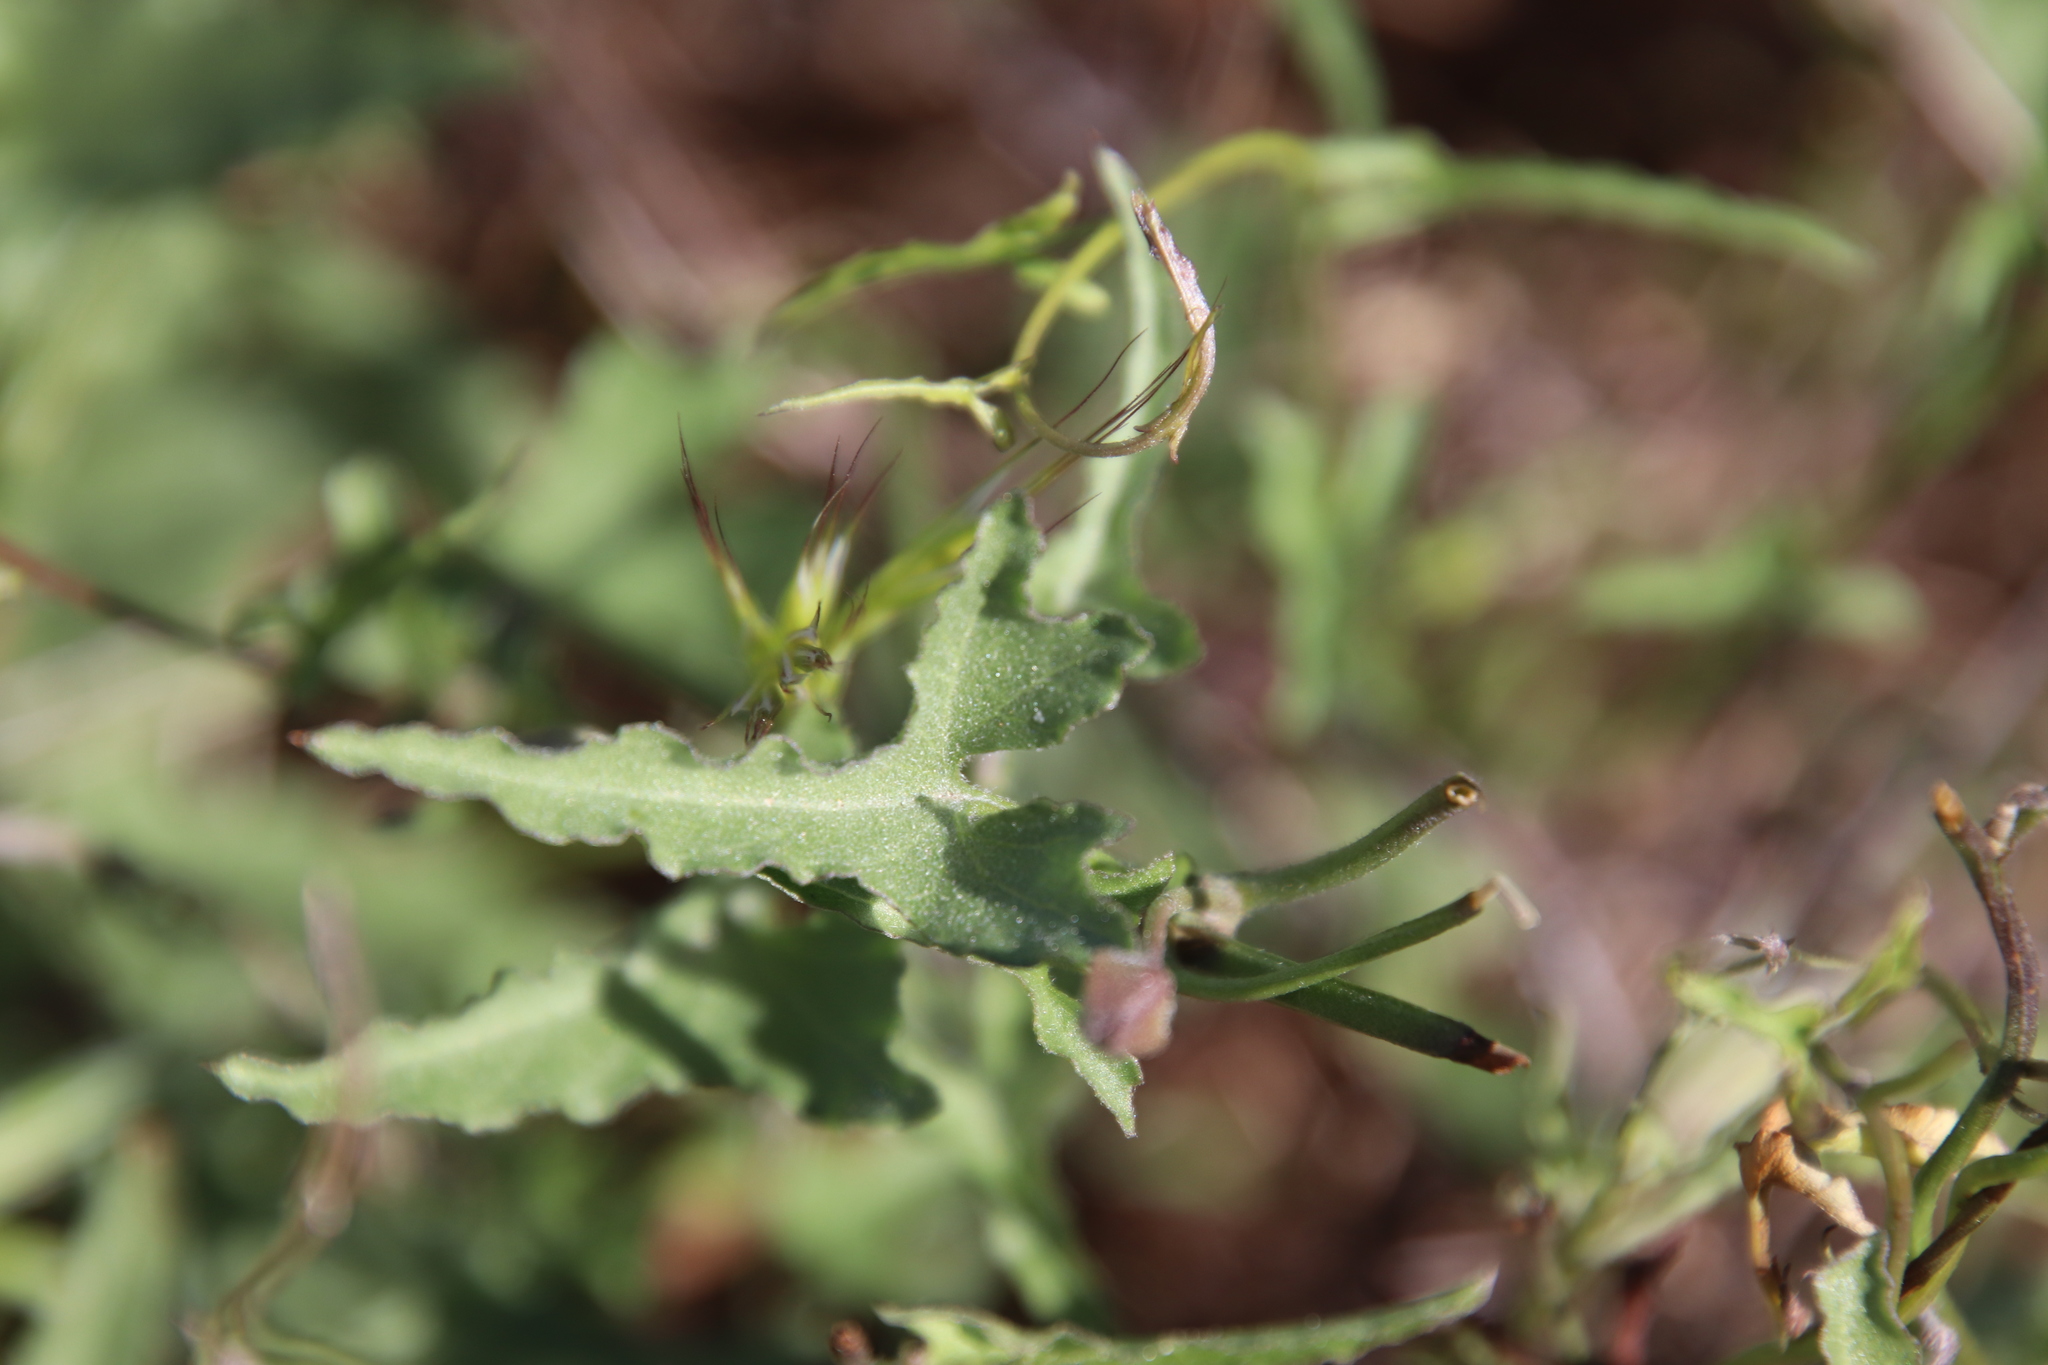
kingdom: Plantae
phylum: Tracheophyta
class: Magnoliopsida
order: Solanales
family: Convolvulaceae
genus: Calystegia
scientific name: Calystegia macrostegia
